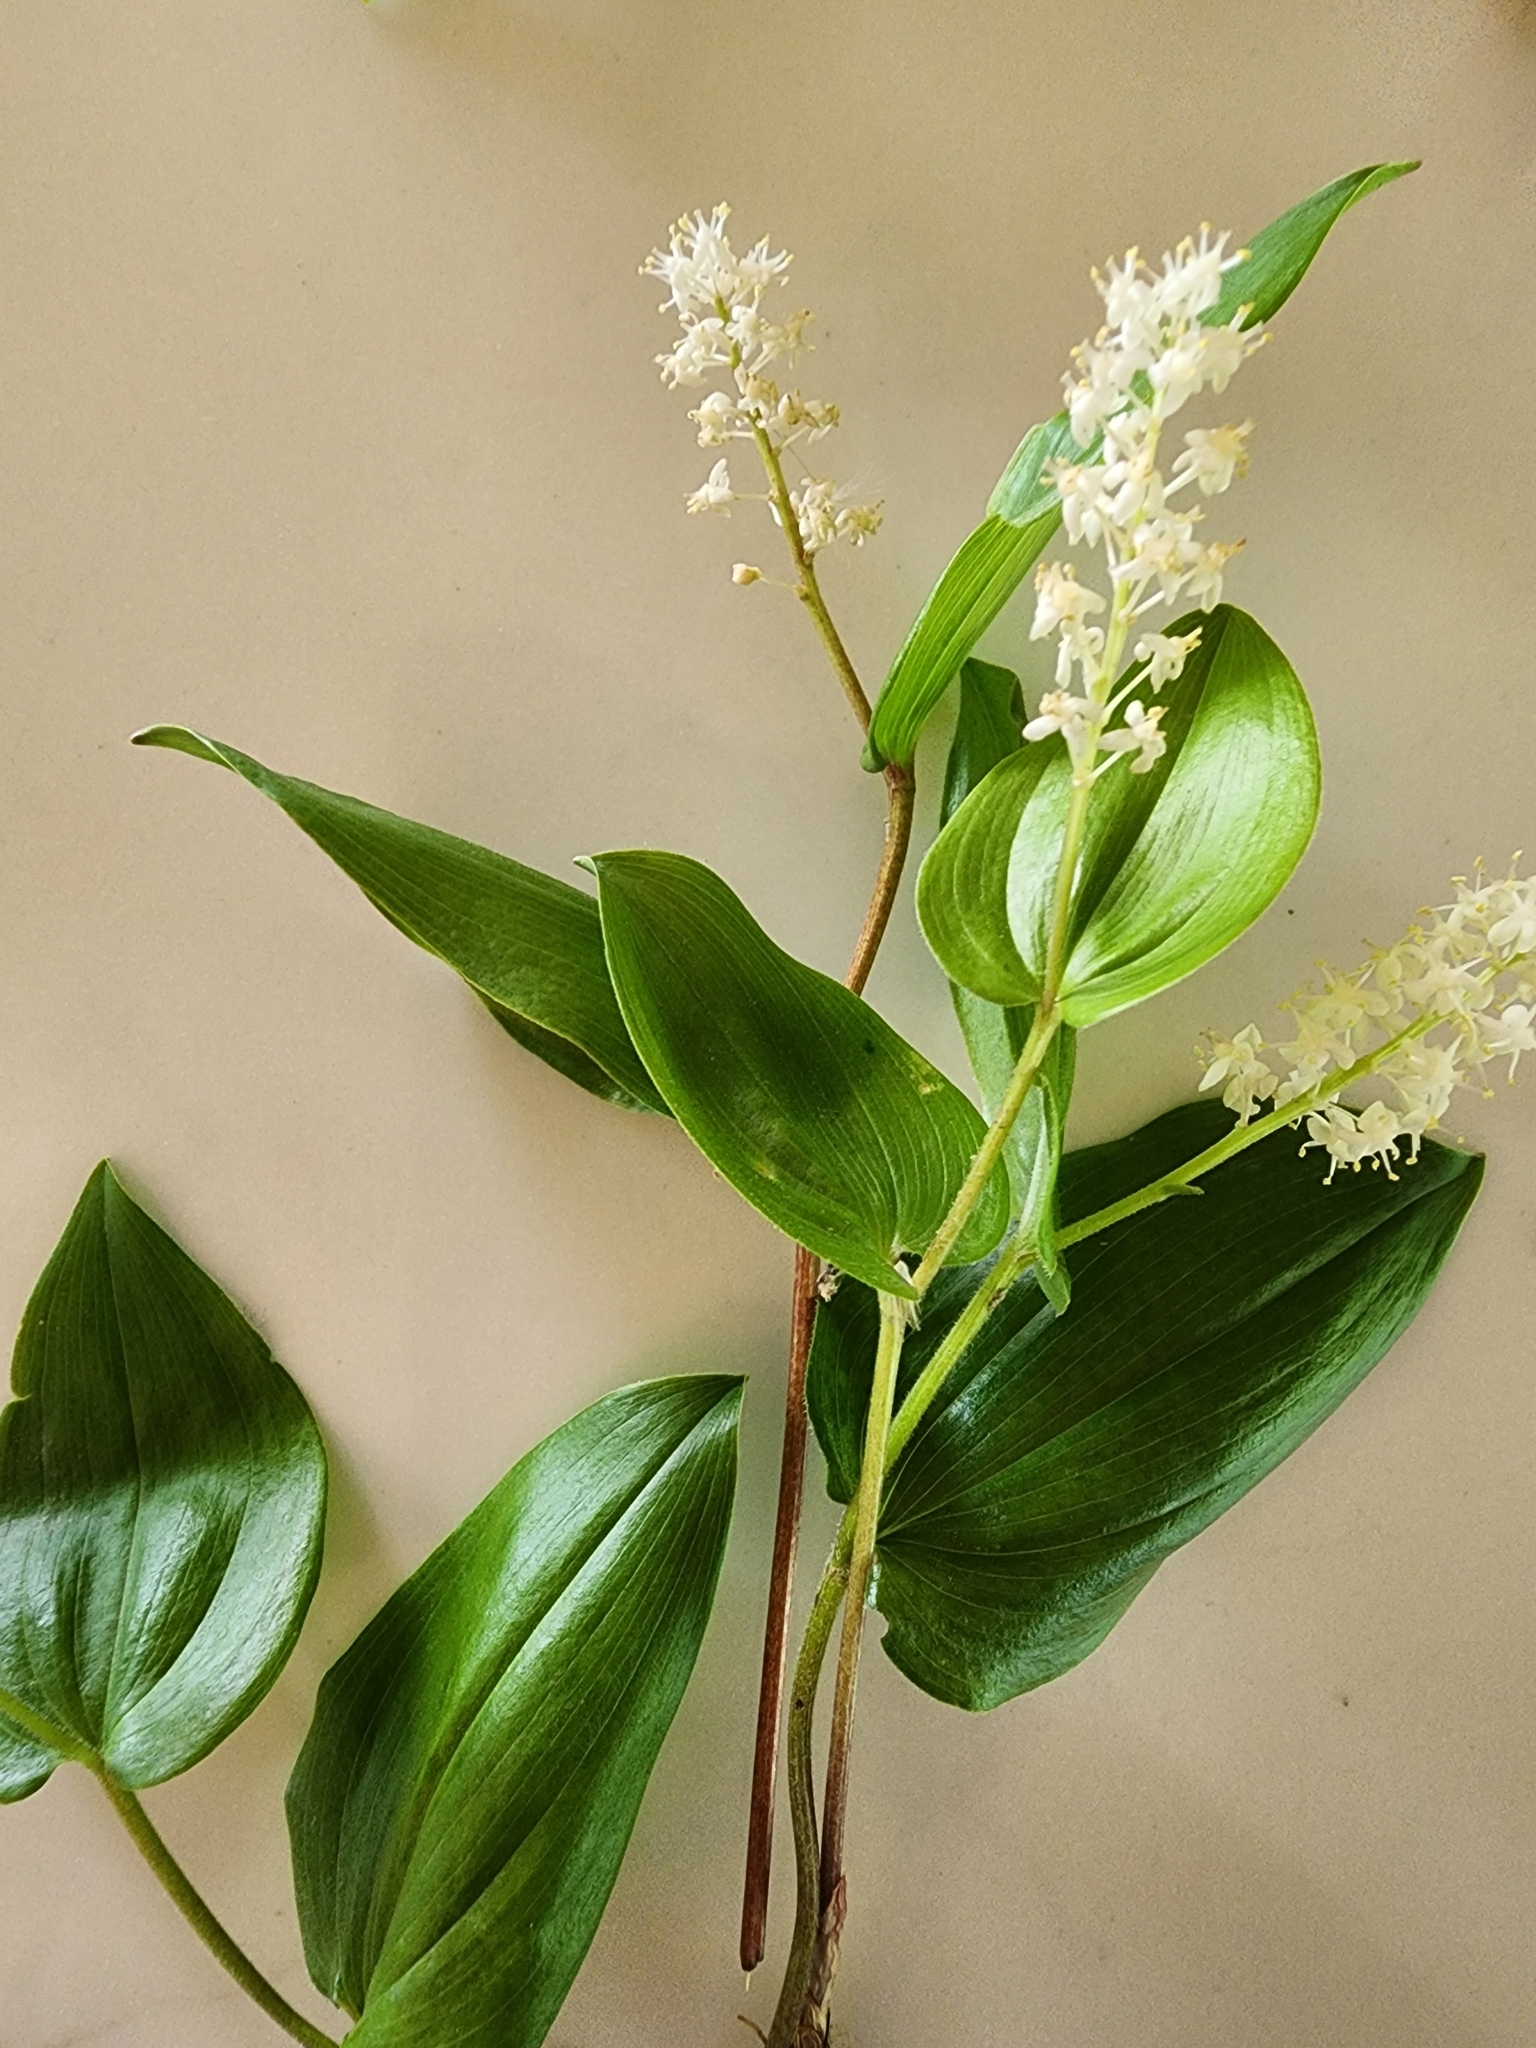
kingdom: Plantae
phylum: Tracheophyta
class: Liliopsida
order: Asparagales
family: Asparagaceae
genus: Maianthemum
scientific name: Maianthemum canadense
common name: False lily-of-the-valley
